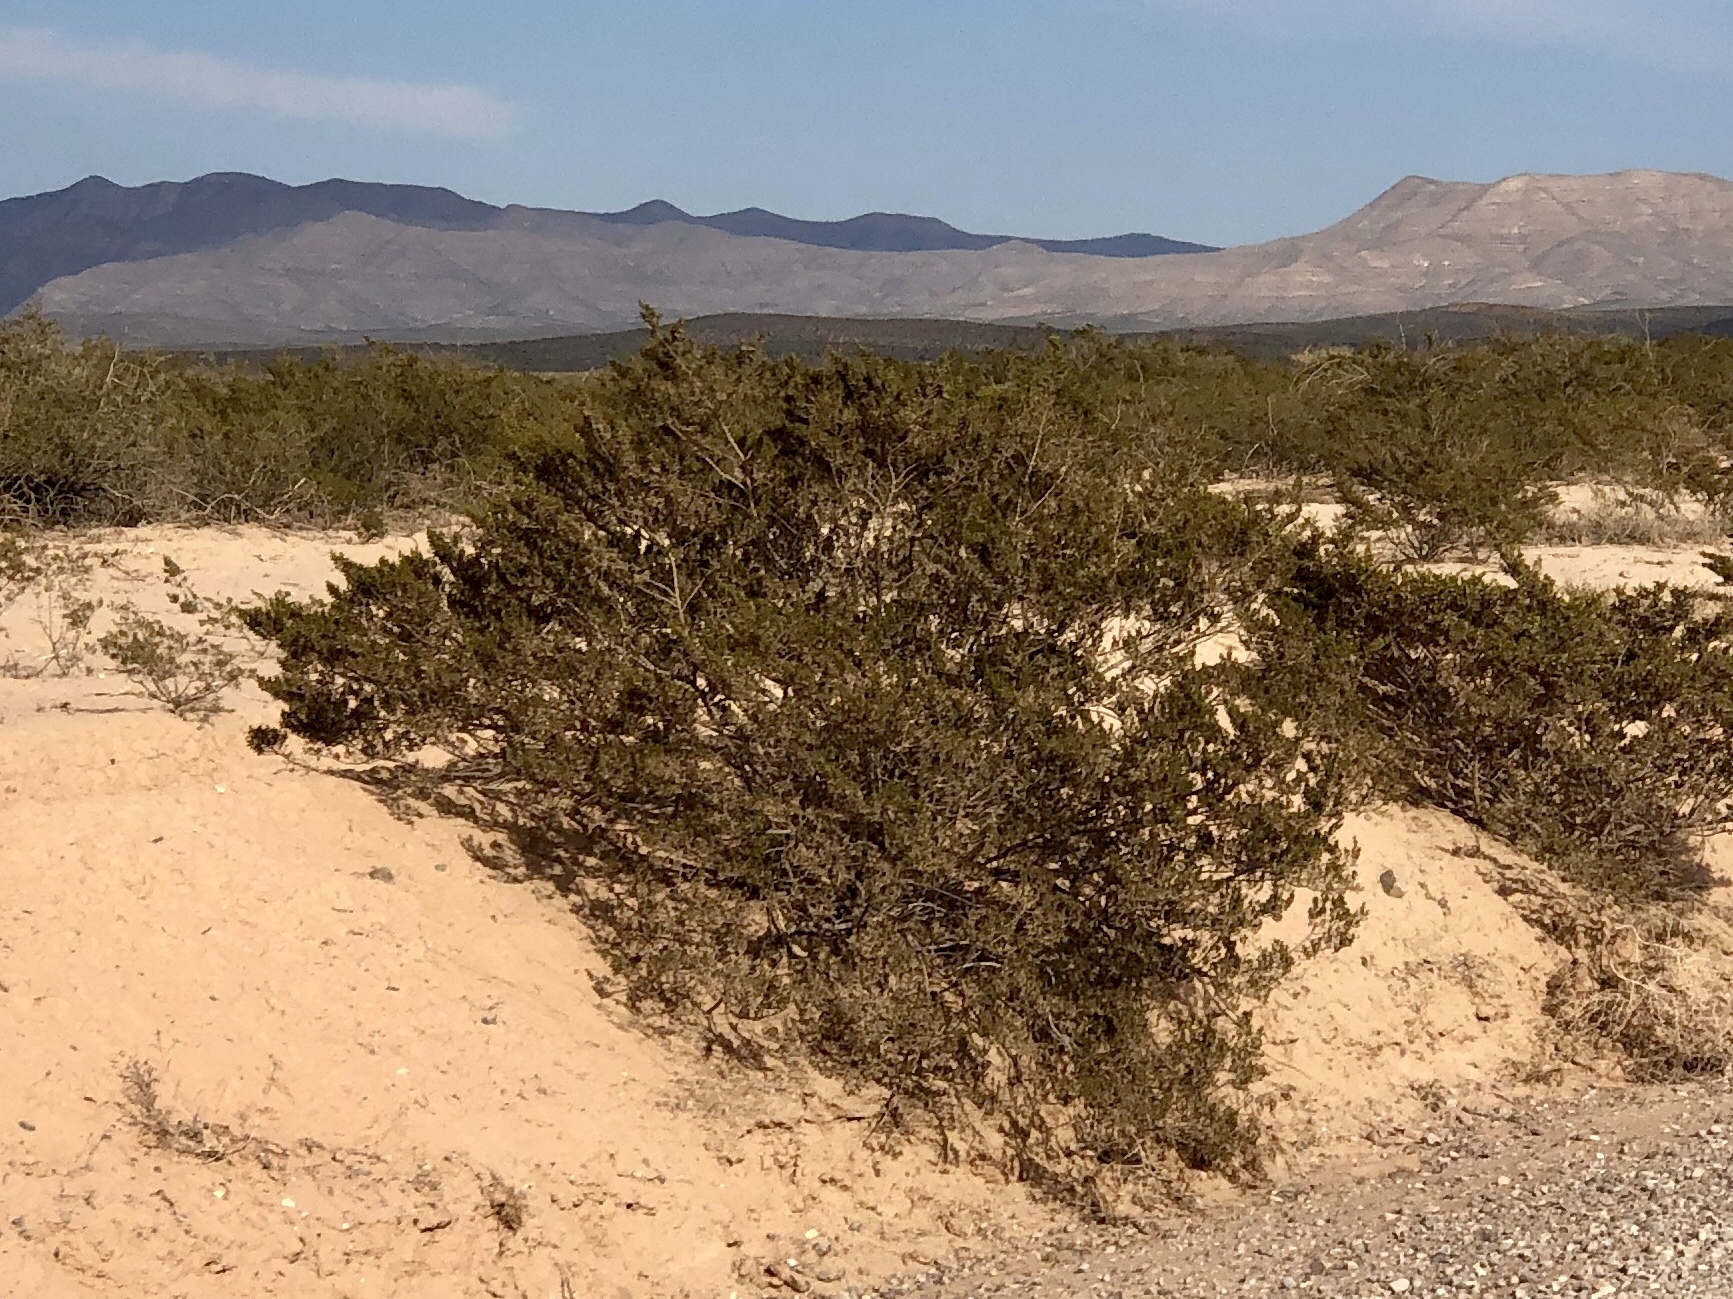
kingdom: Plantae
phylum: Tracheophyta
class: Magnoliopsida
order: Zygophyllales
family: Zygophyllaceae
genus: Larrea
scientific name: Larrea tridentata
